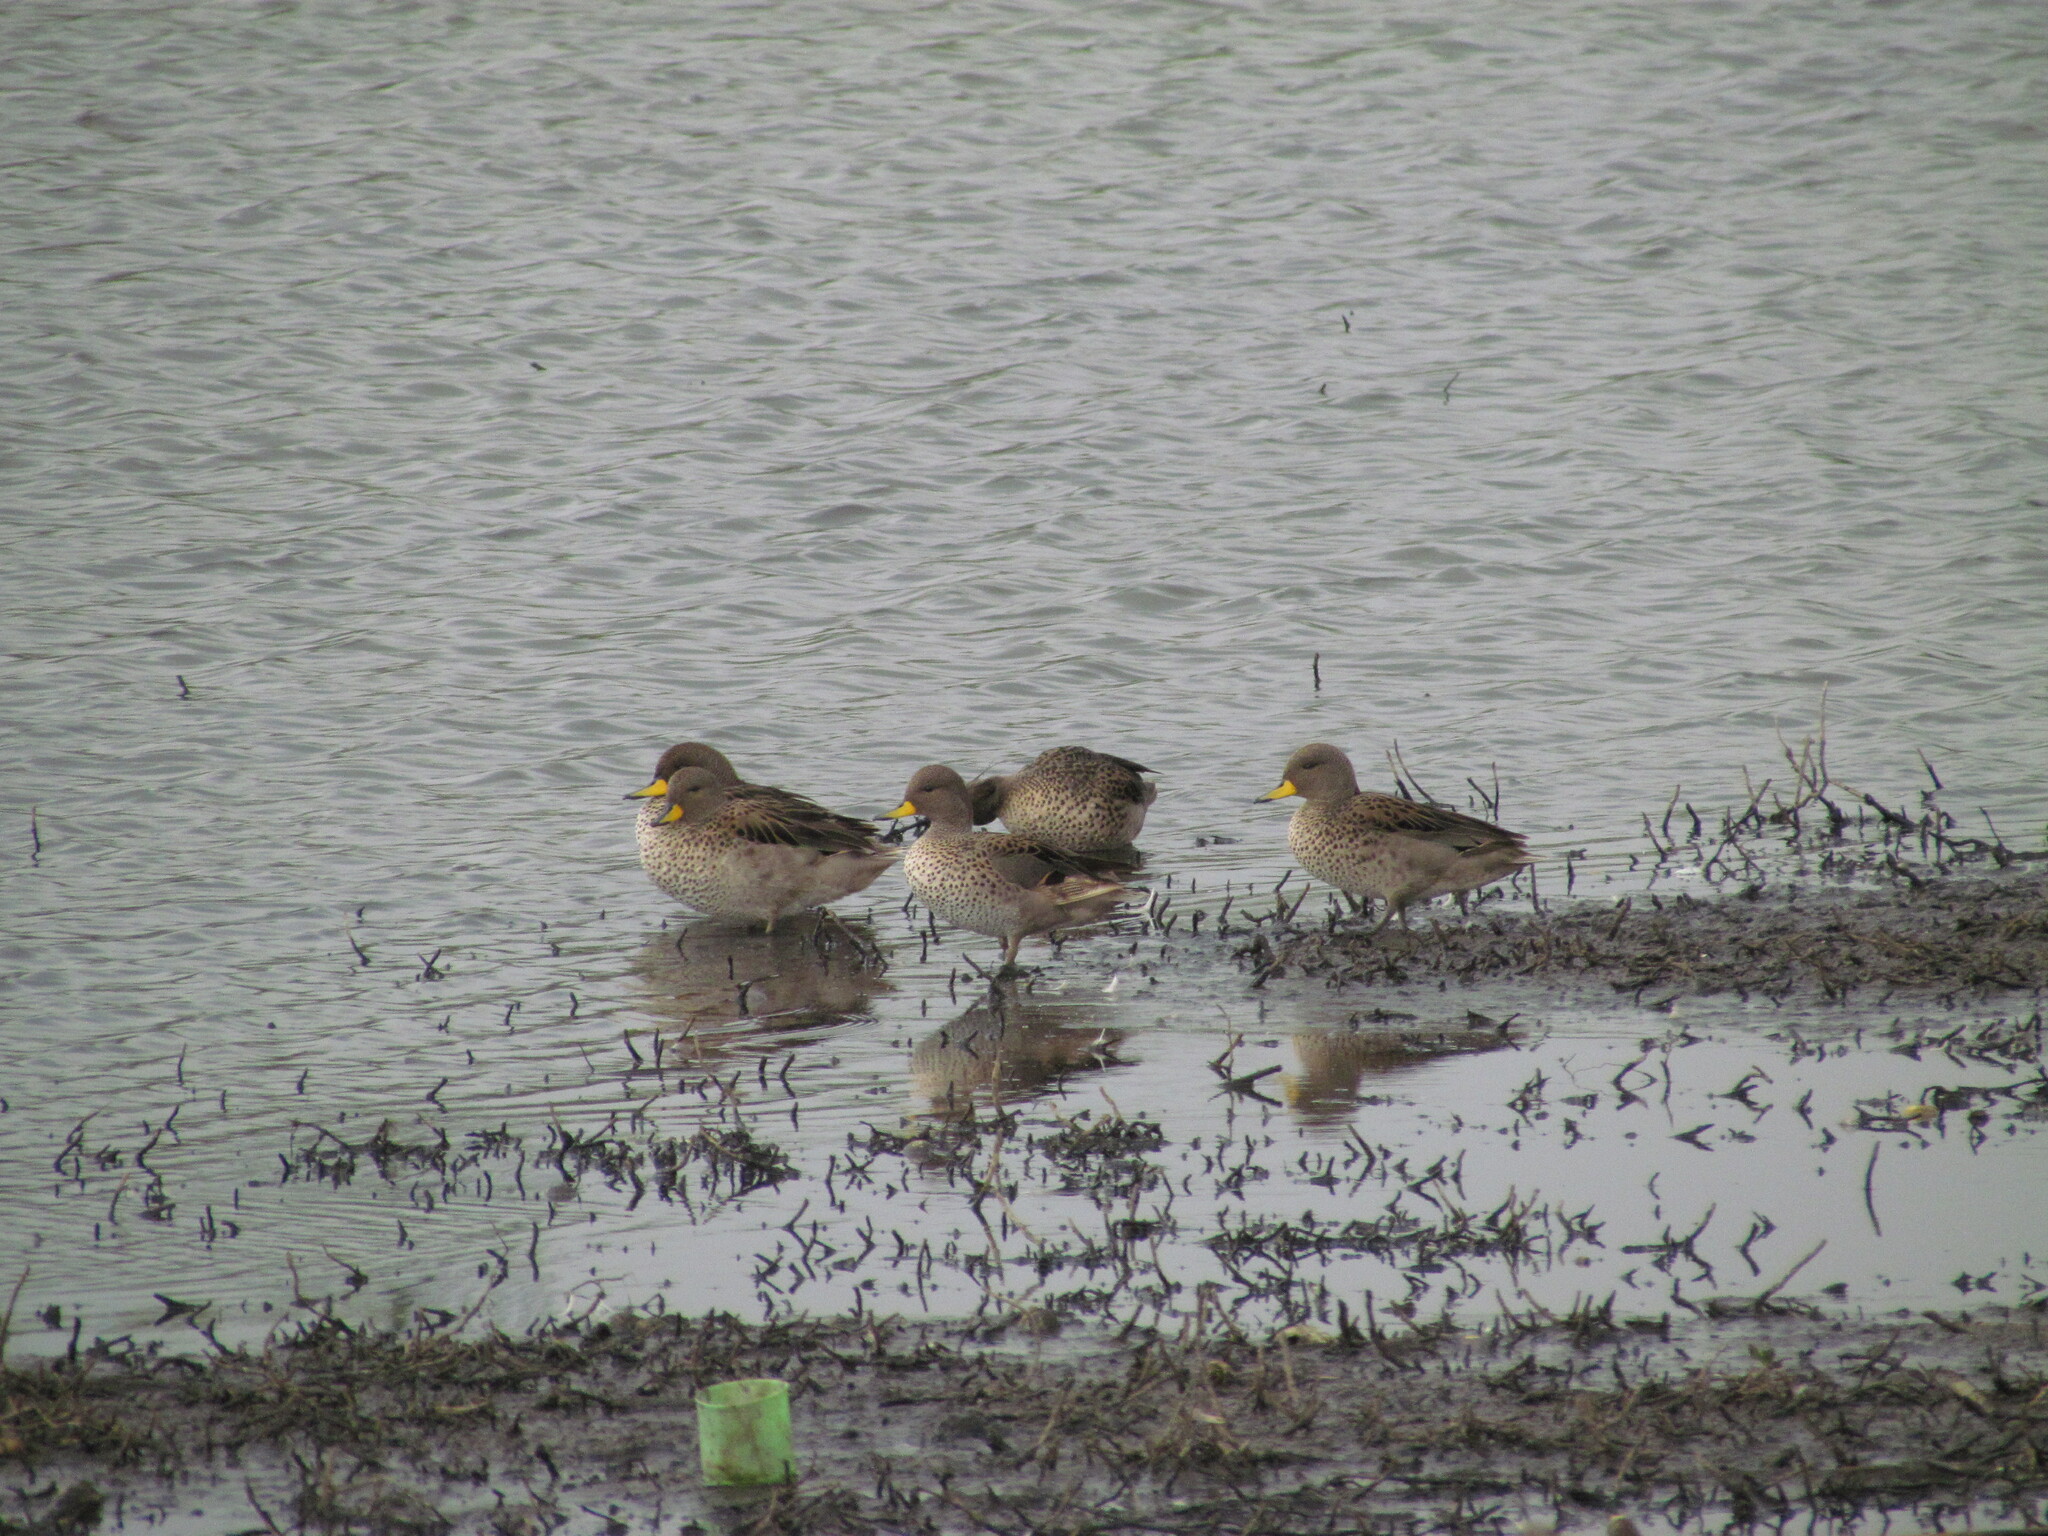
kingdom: Animalia
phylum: Chordata
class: Aves
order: Anseriformes
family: Anatidae
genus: Anas
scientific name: Anas flavirostris
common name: Yellow-billed teal
